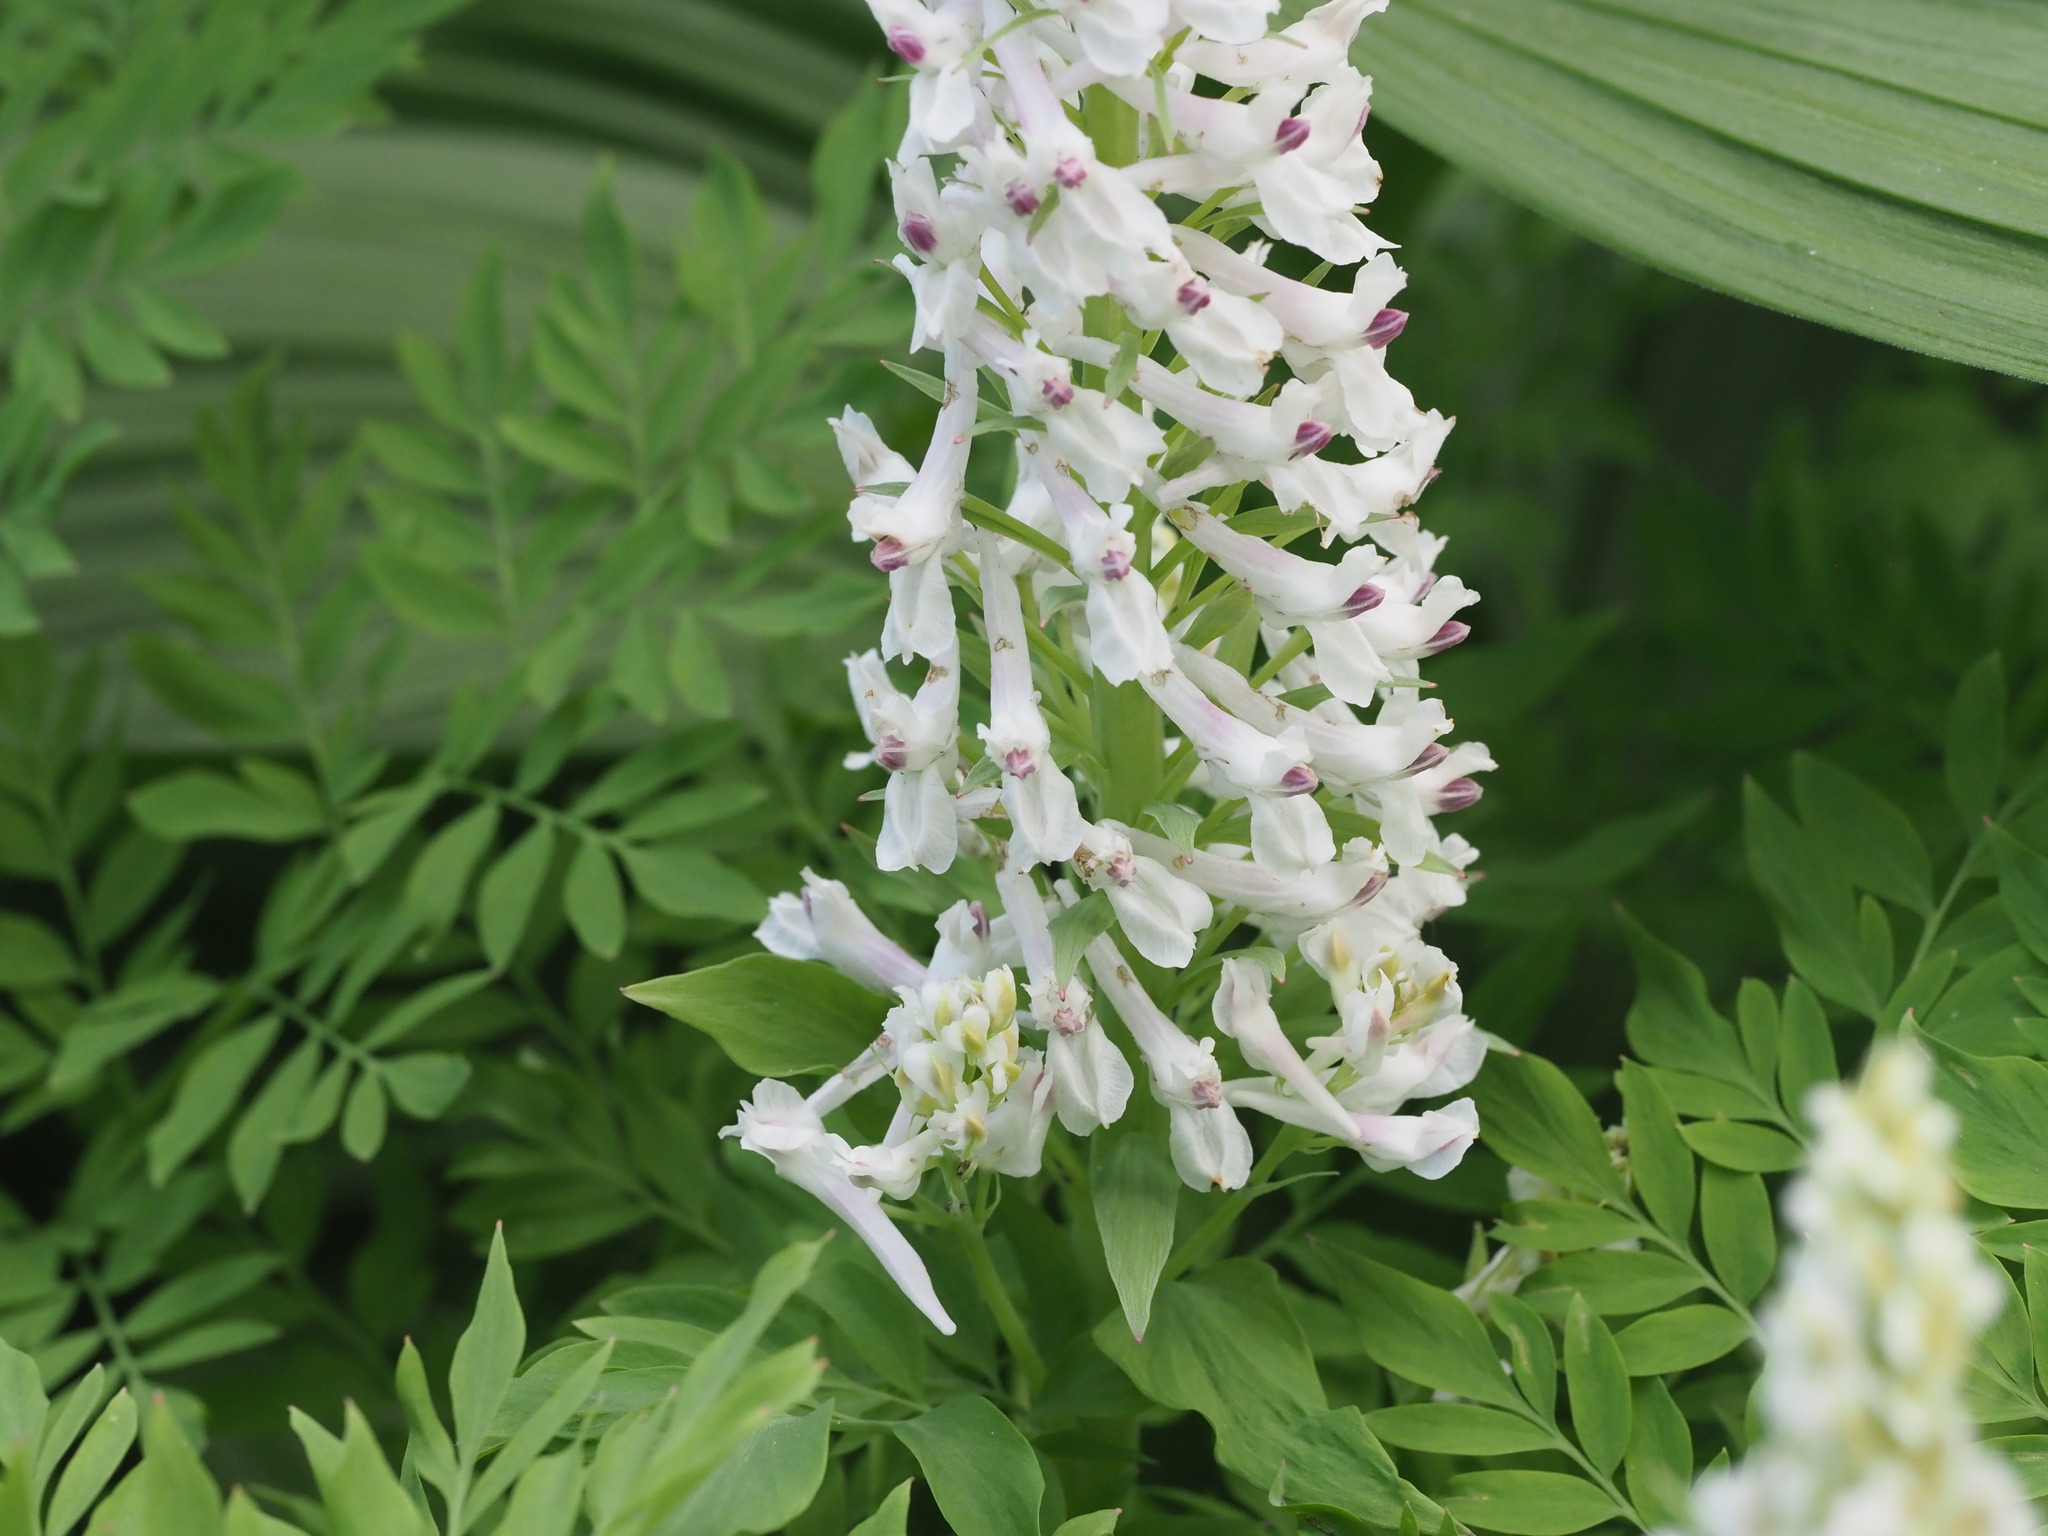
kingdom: Plantae
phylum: Tracheophyta
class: Magnoliopsida
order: Ranunculales
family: Papaveraceae
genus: Corydalis
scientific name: Corydalis caseana
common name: Fitweed
